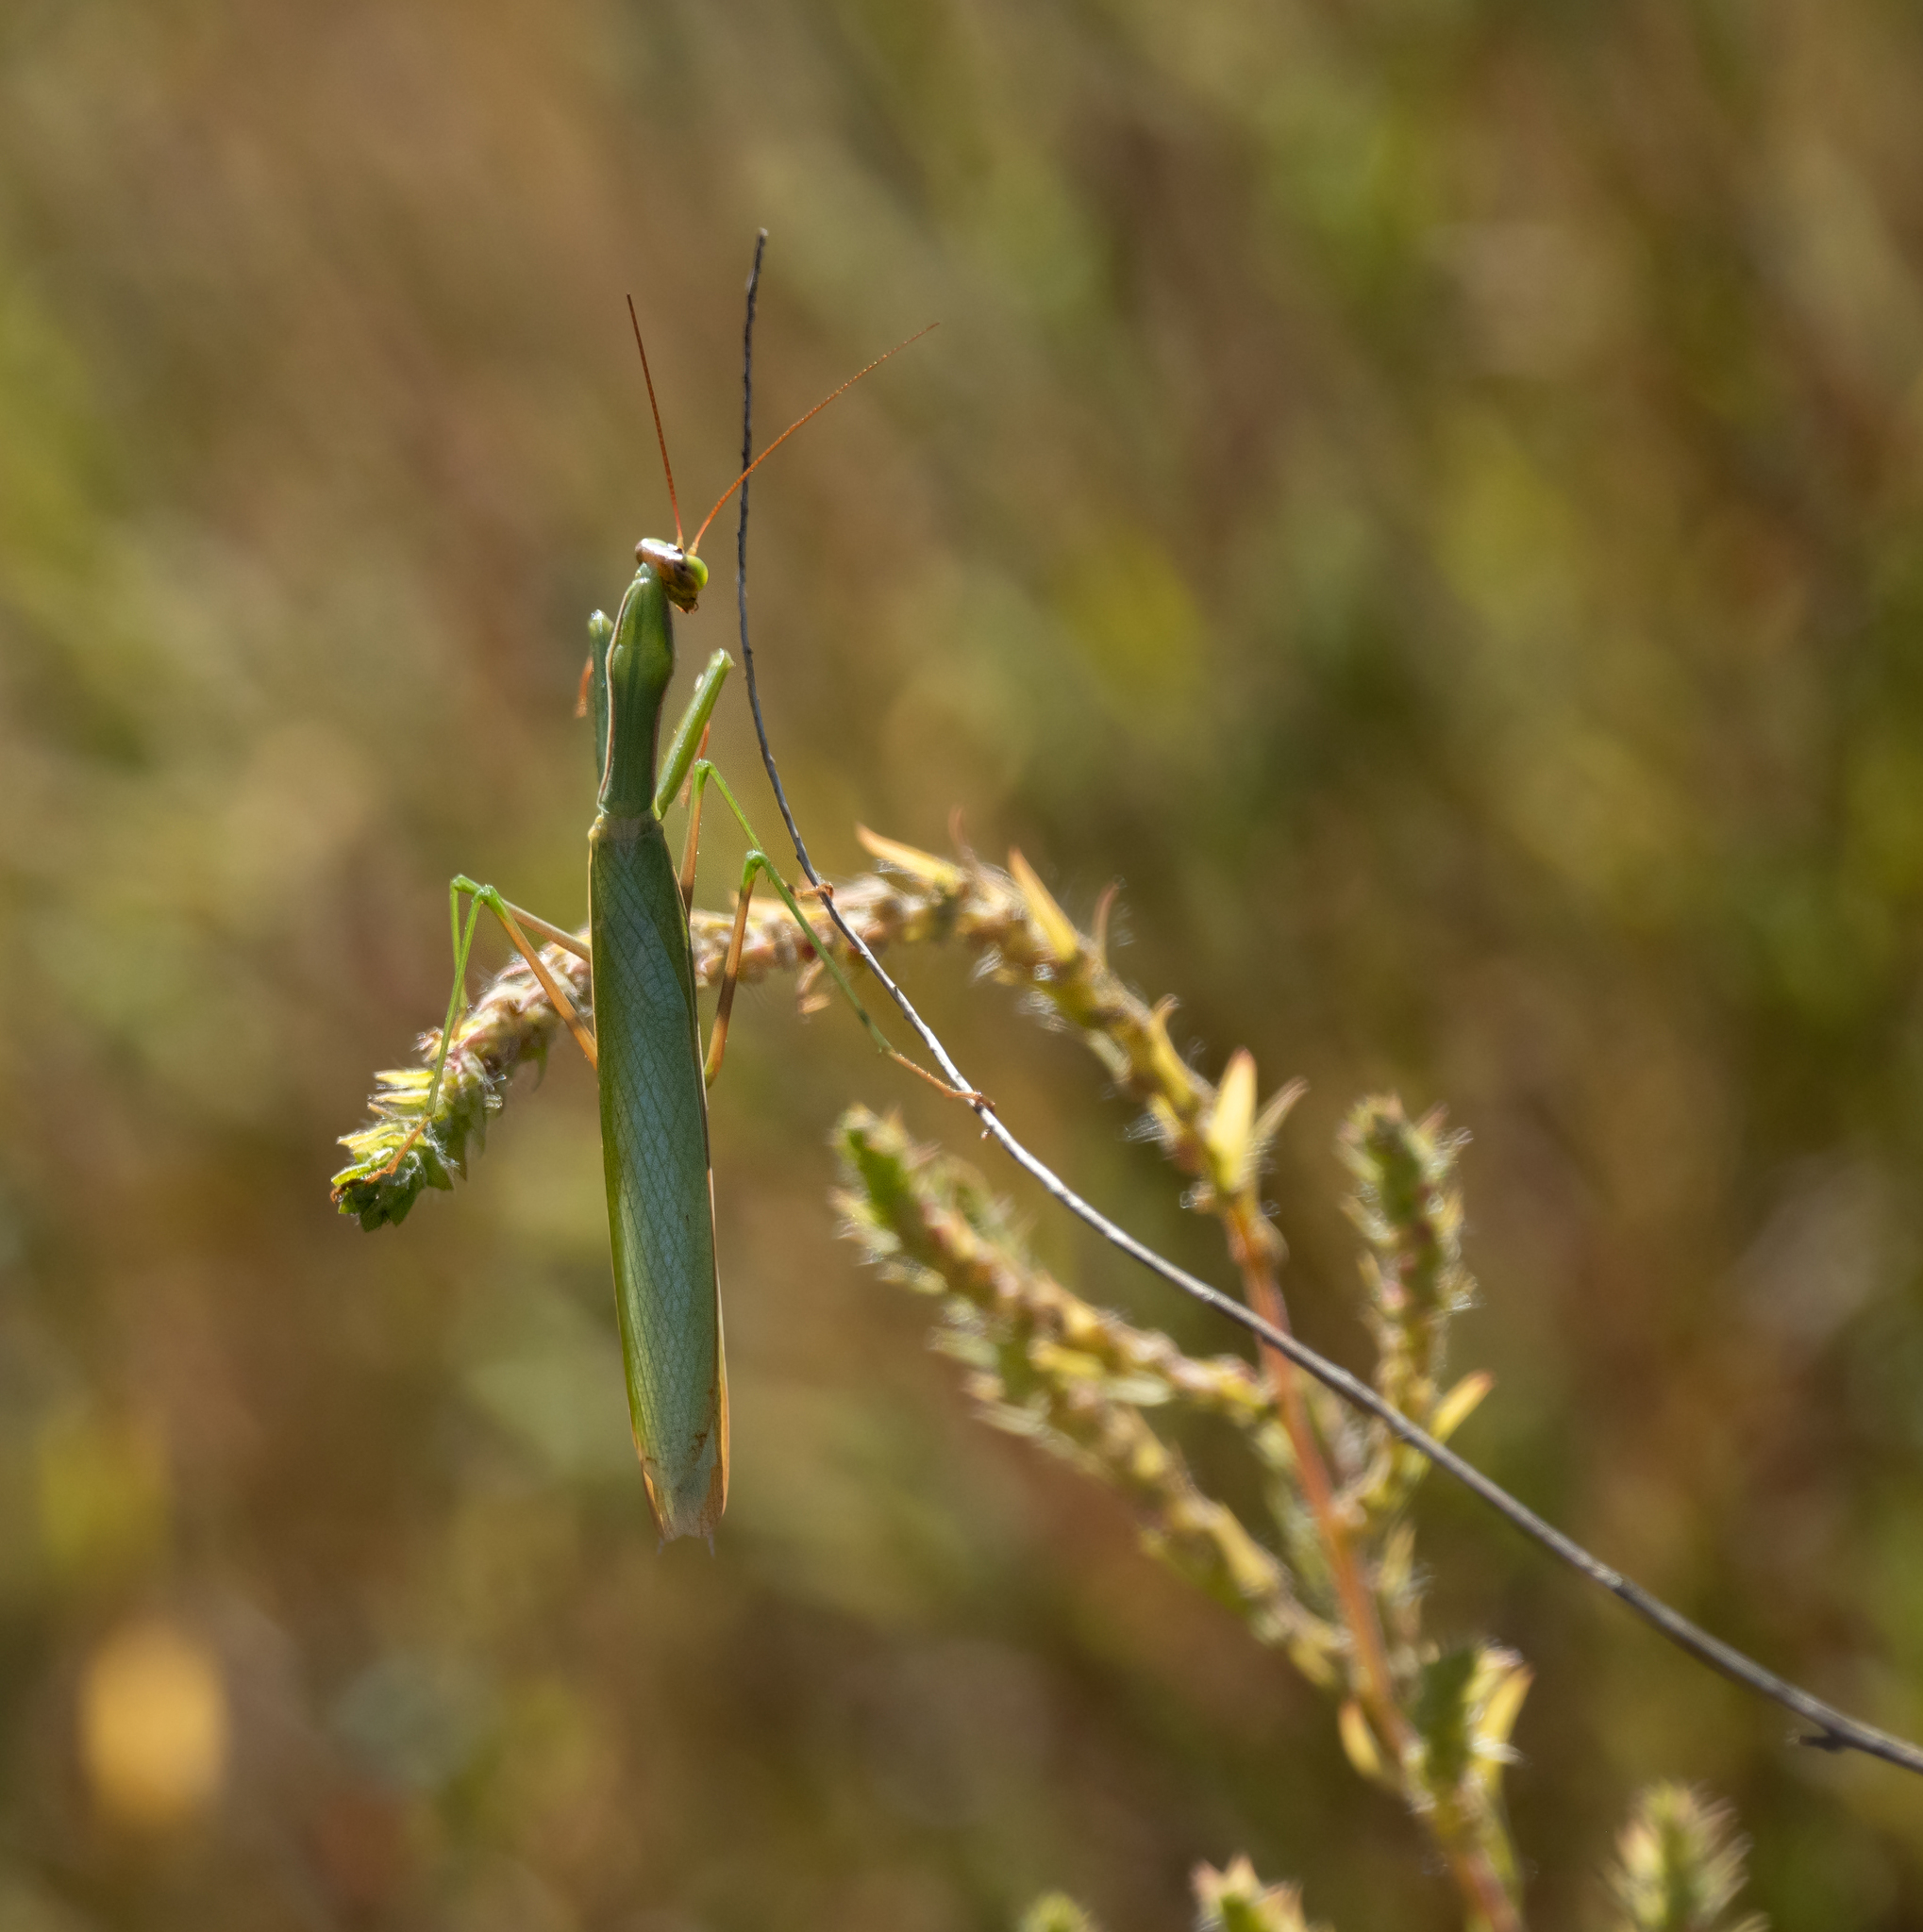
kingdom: Animalia
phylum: Arthropoda
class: Insecta
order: Mantodea
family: Mantidae
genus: Mantis
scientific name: Mantis religiosa
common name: Praying mantis
